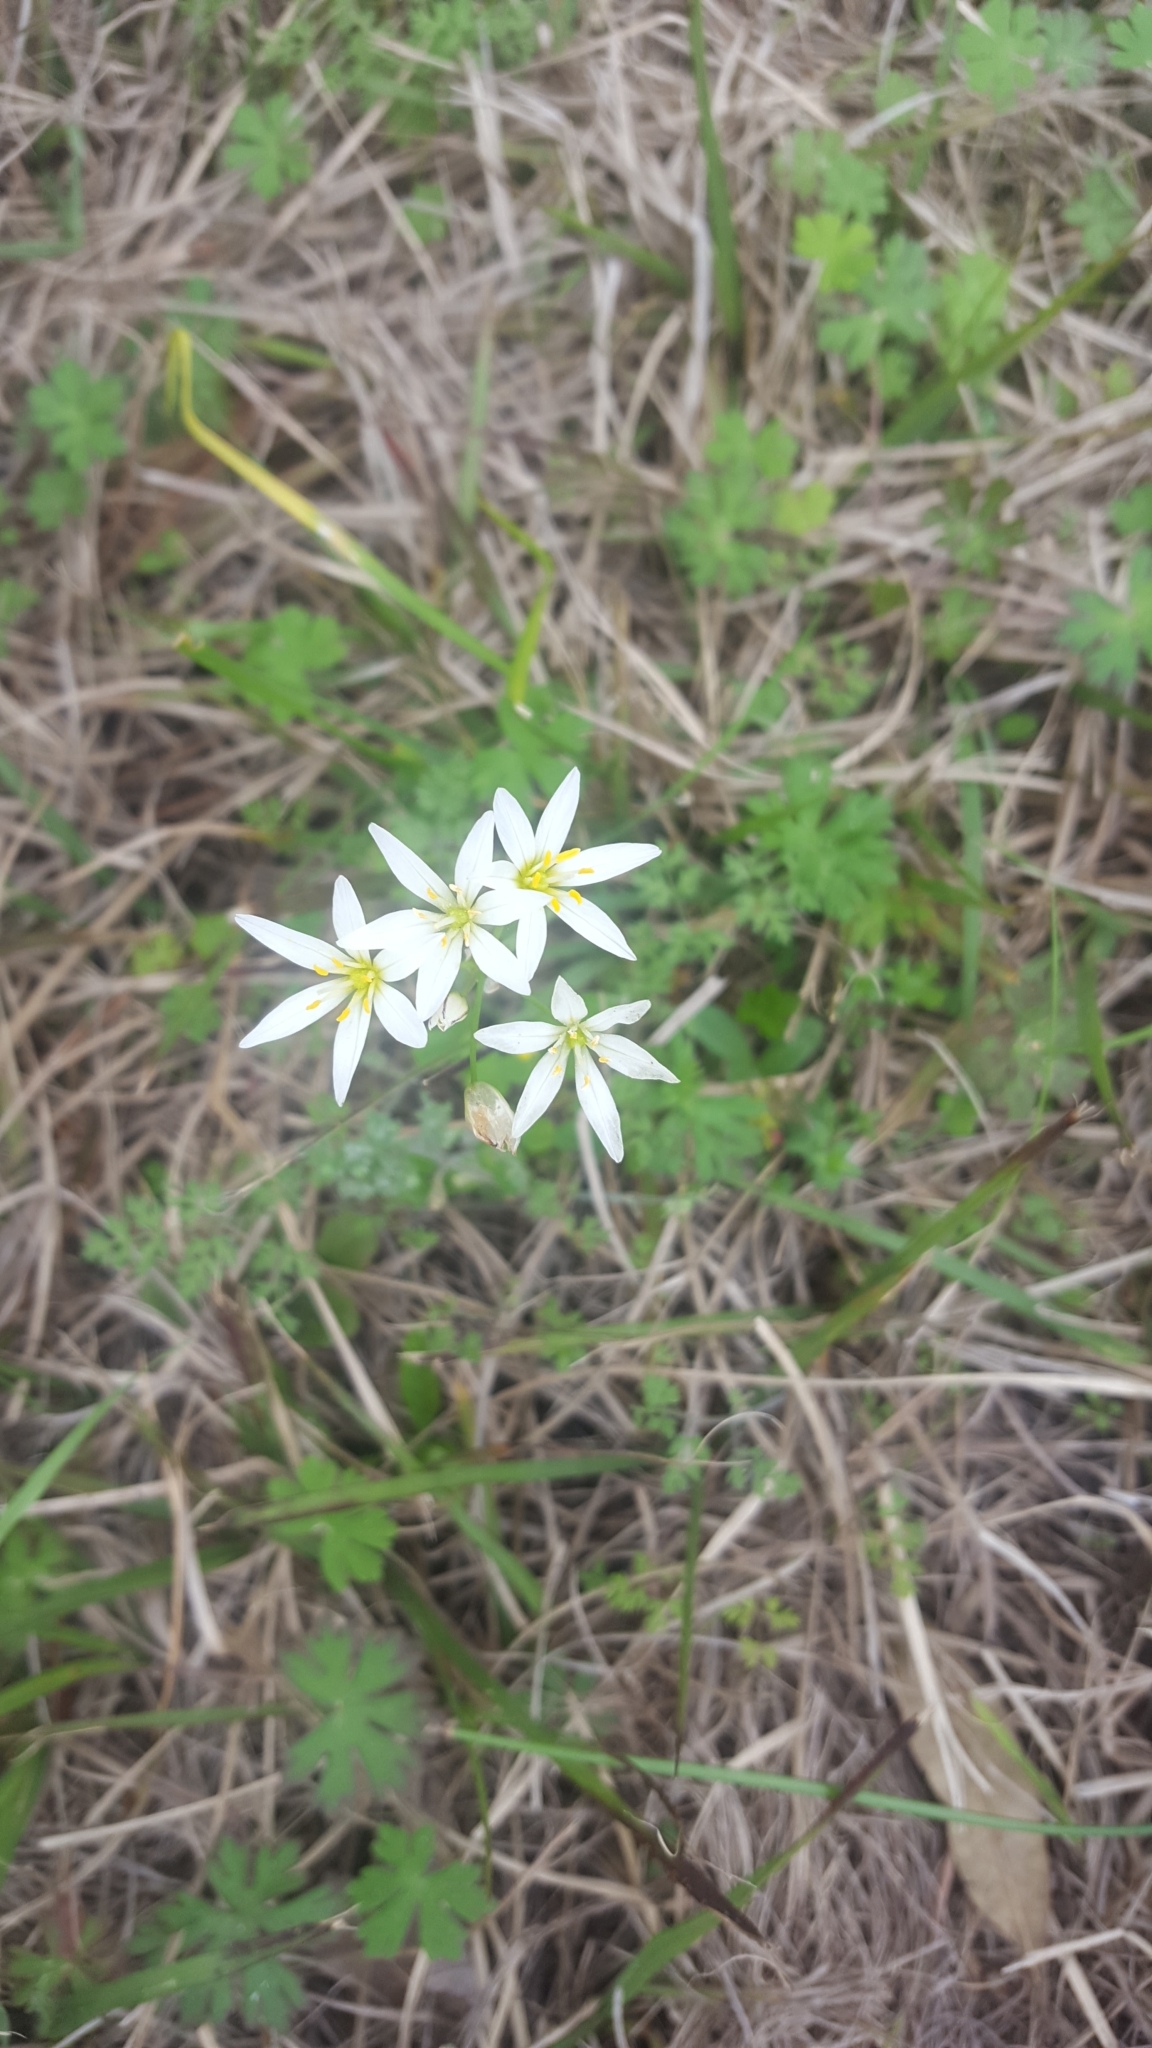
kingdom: Plantae
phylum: Tracheophyta
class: Liliopsida
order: Asparagales
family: Amaryllidaceae
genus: Nothoscordum
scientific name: Nothoscordum bivalve
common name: Crow-poison
